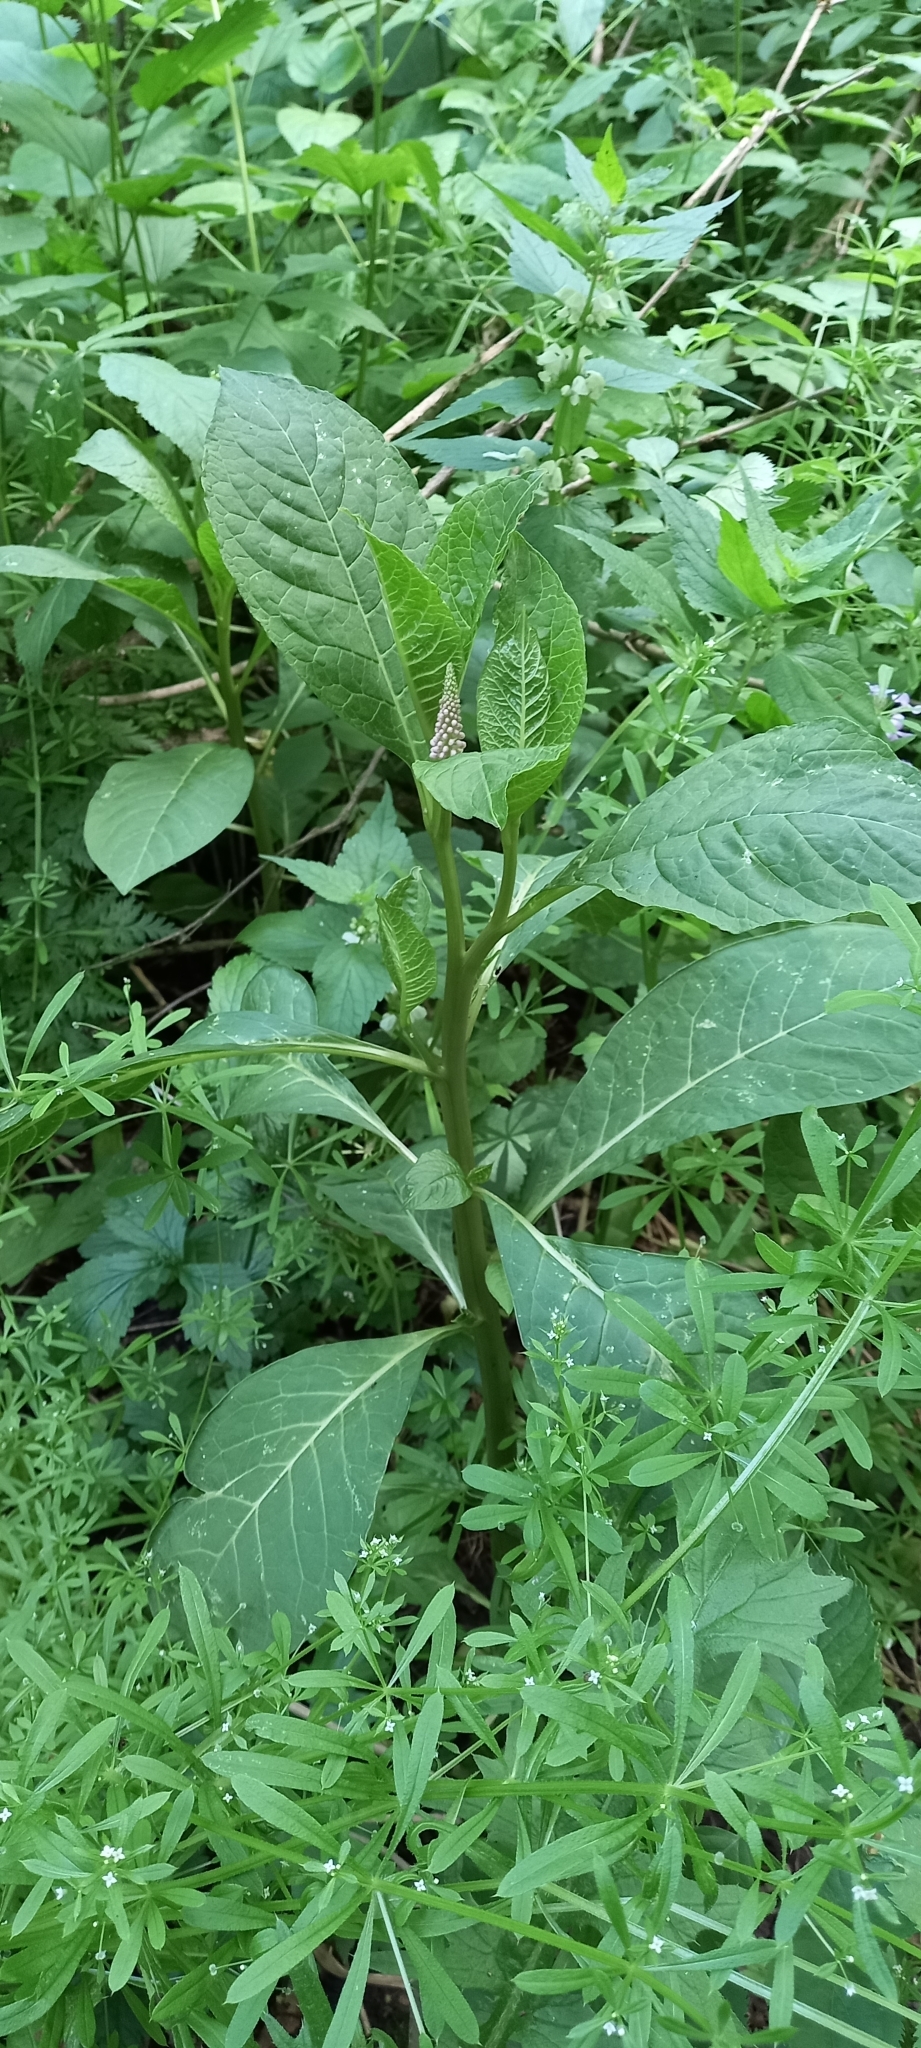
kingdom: Plantae
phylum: Tracheophyta
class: Magnoliopsida
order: Caryophyllales
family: Phytolaccaceae
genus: Phytolacca
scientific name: Phytolacca americana
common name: American pokeweed
